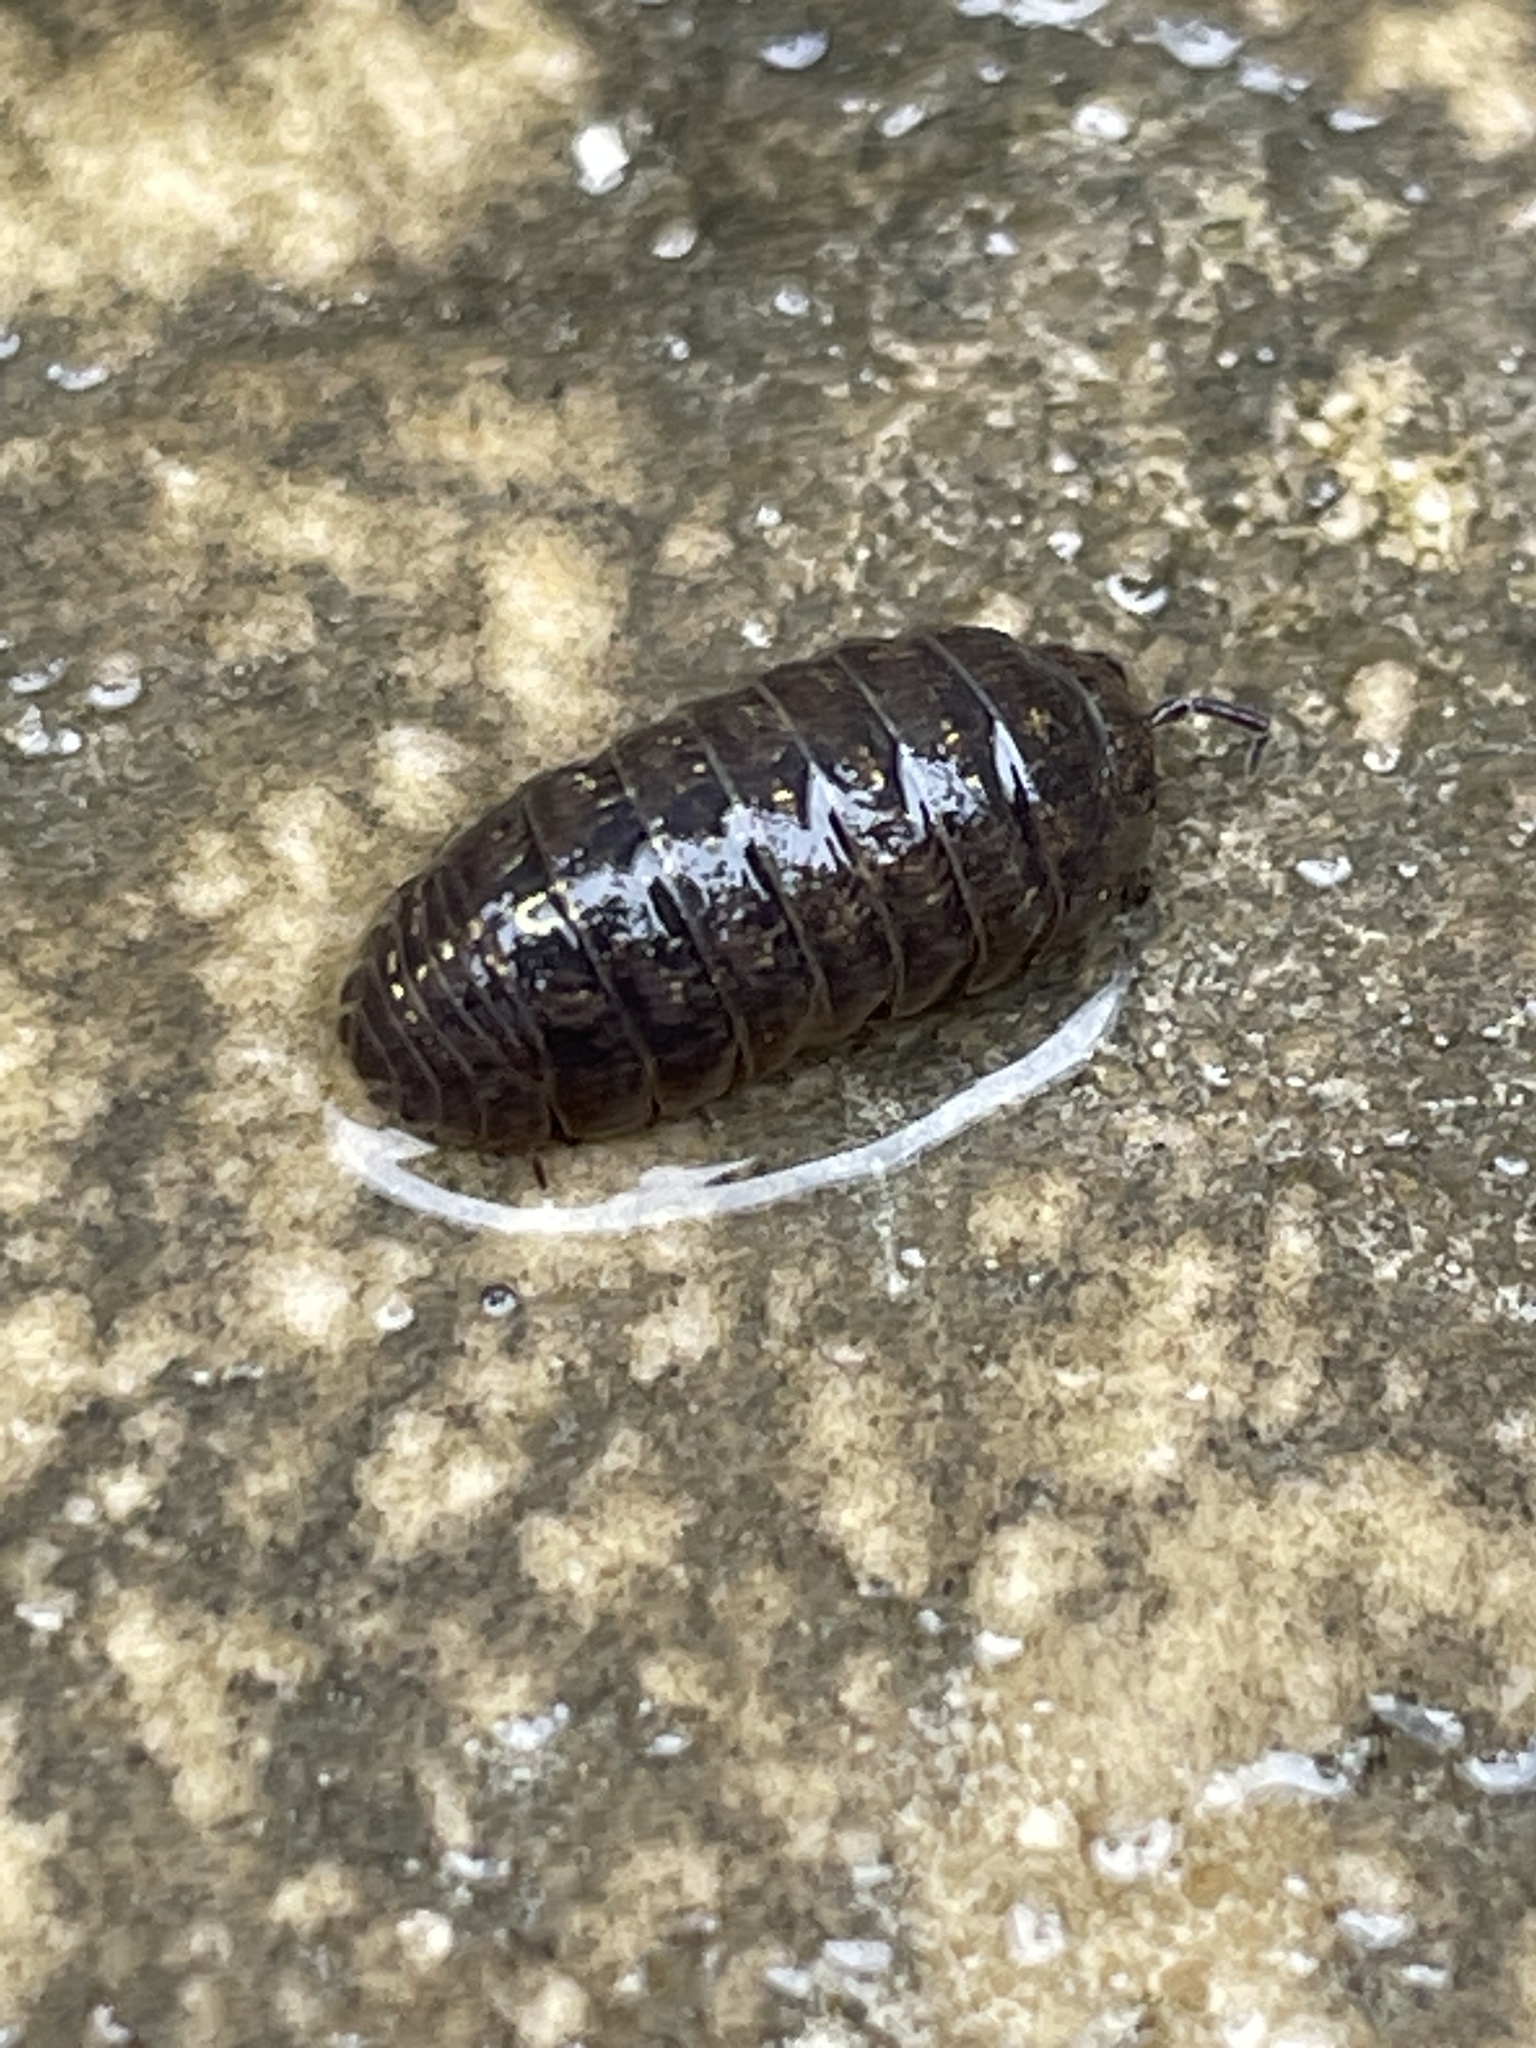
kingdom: Animalia
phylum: Arthropoda
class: Malacostraca
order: Isopoda
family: Armadillidiidae
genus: Armadillidium
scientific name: Armadillidium vulgare
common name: Common pill woodlouse
